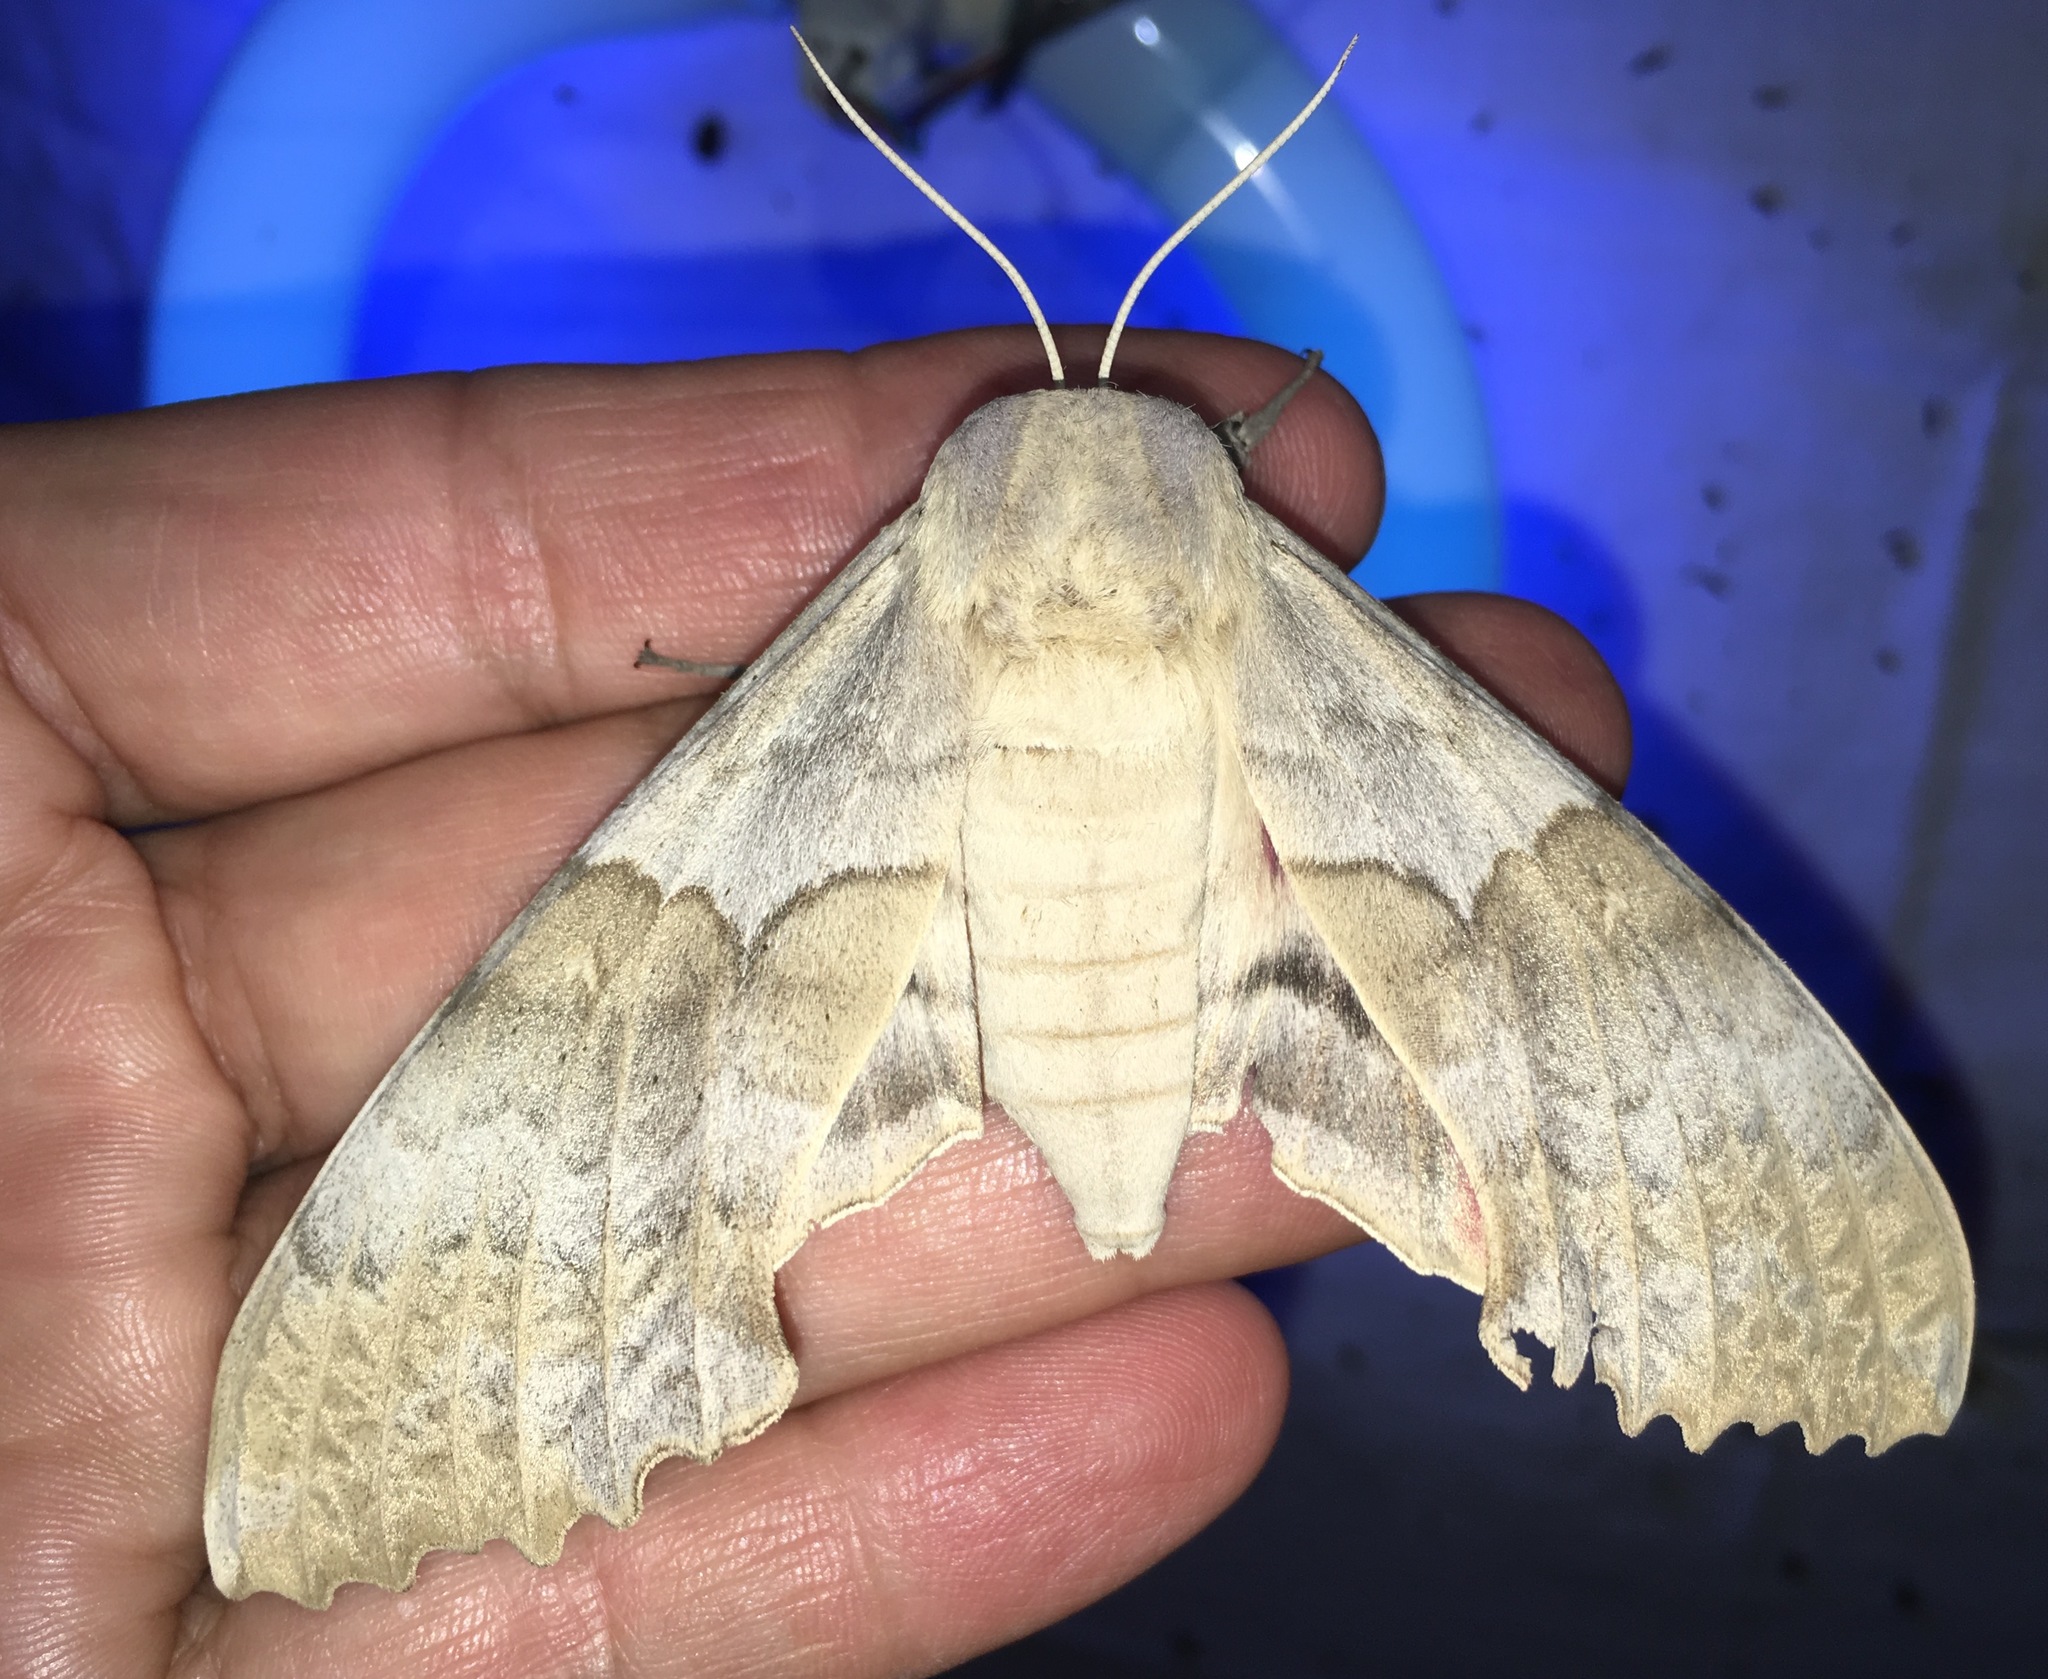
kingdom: Animalia
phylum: Arthropoda
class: Insecta
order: Lepidoptera
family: Sphingidae
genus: Pachysphinx
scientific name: Pachysphinx occidentalis
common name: Western poplar sphinx
